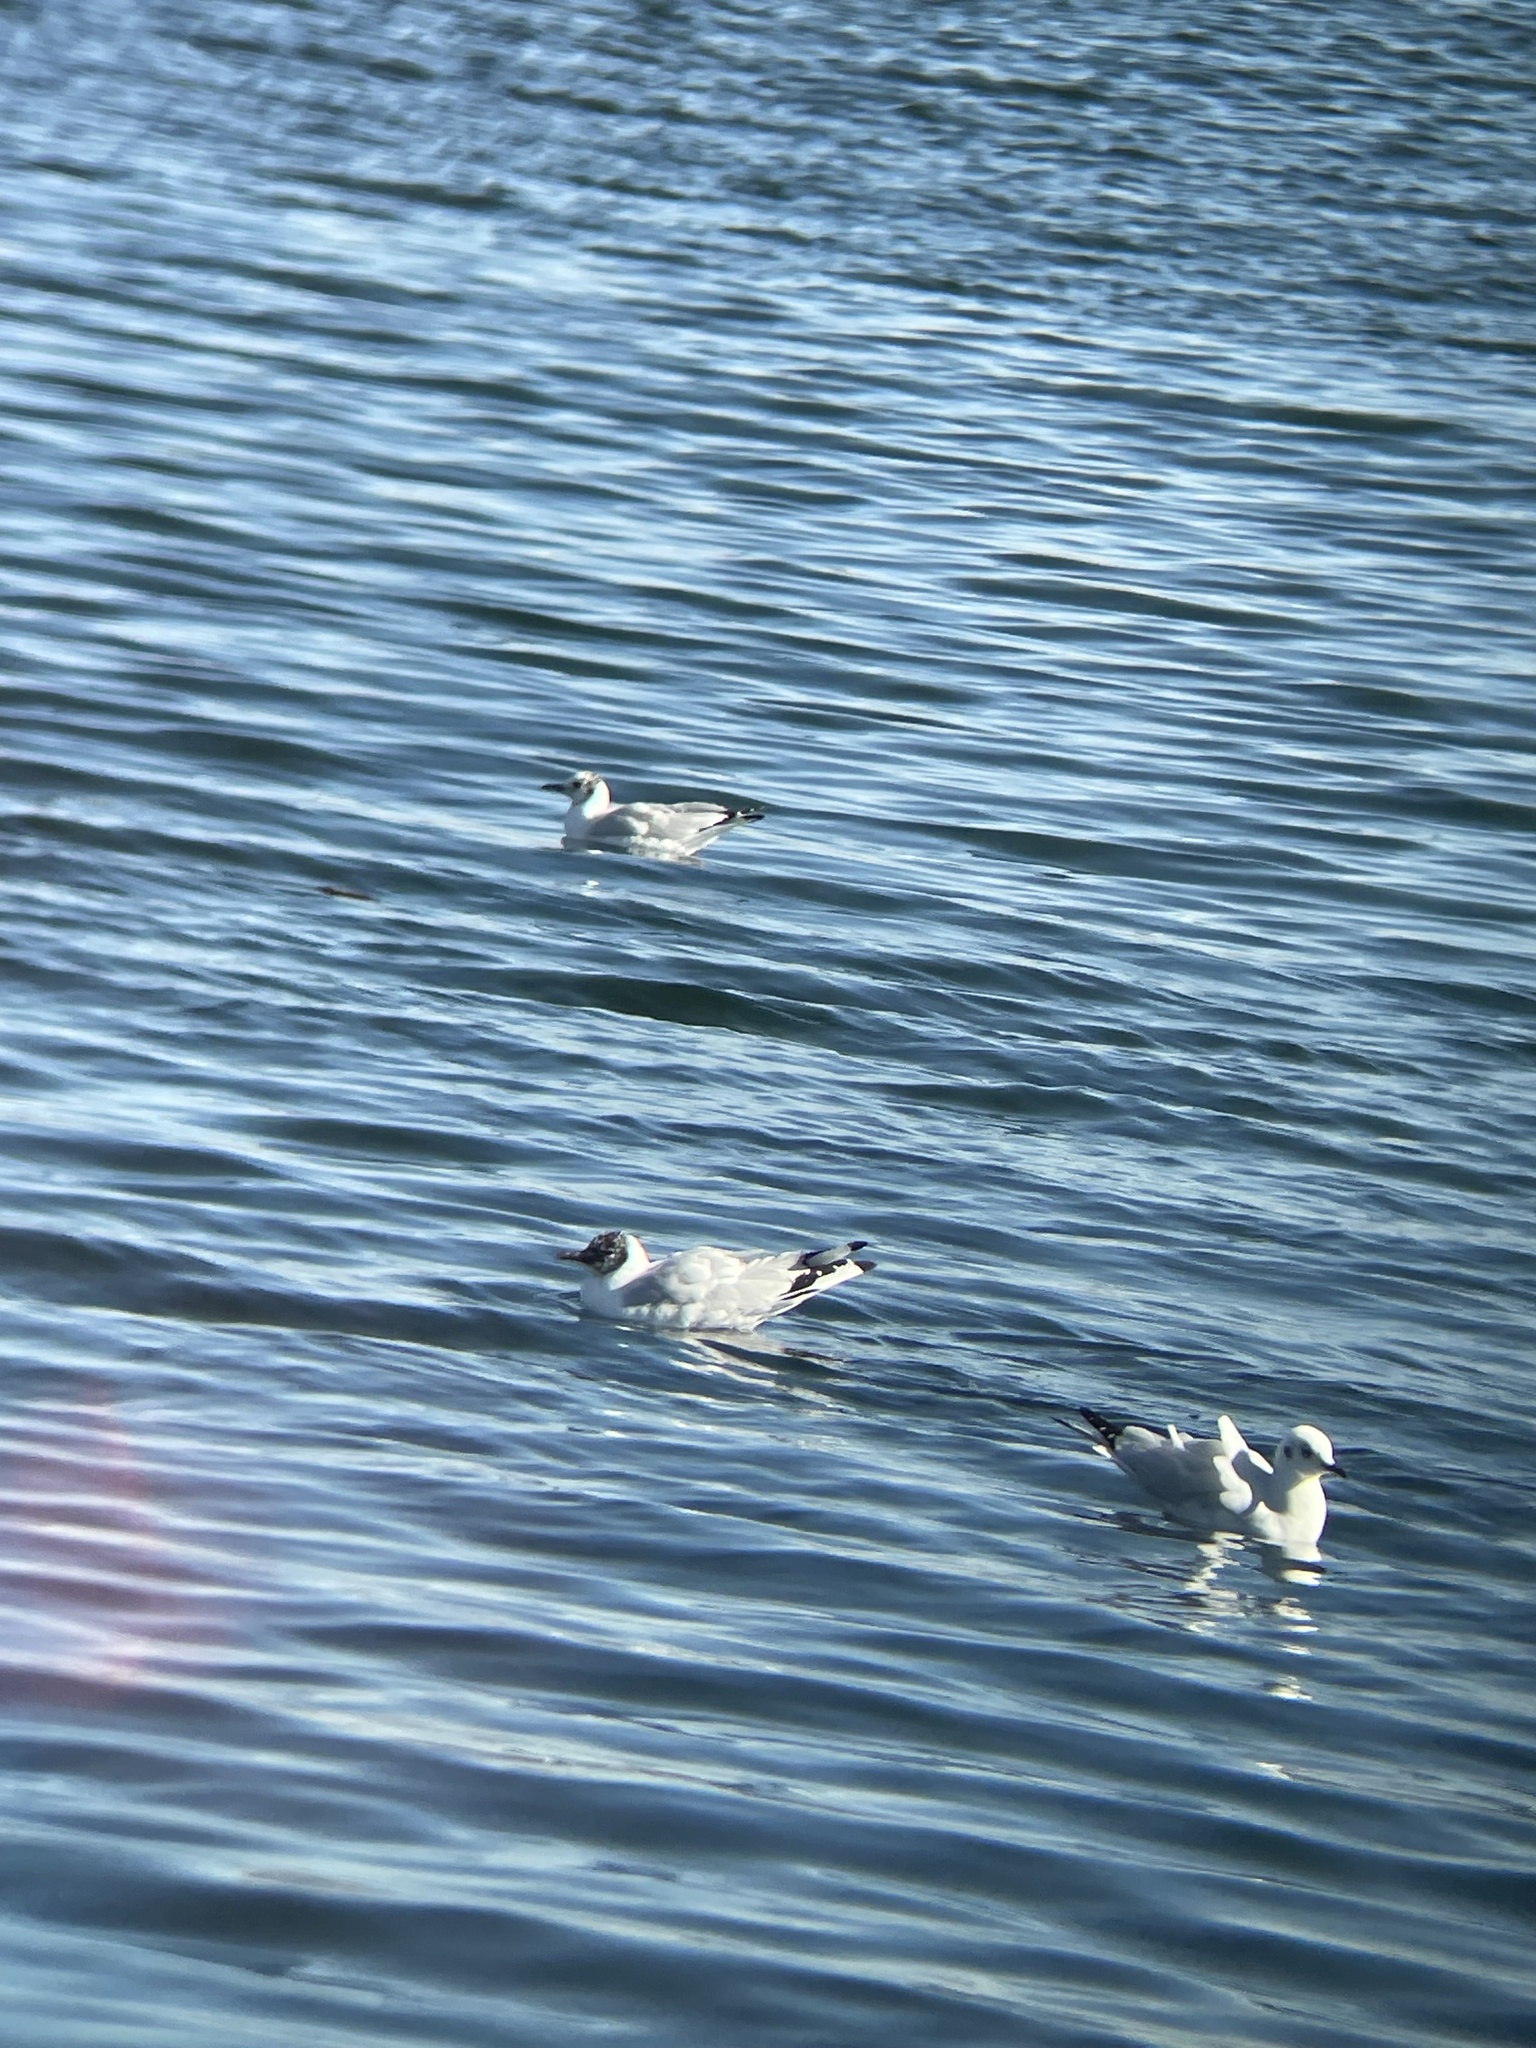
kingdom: Animalia
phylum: Chordata
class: Aves
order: Charadriiformes
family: Laridae
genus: Chroicocephalus
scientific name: Chroicocephalus serranus
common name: Andean gull
